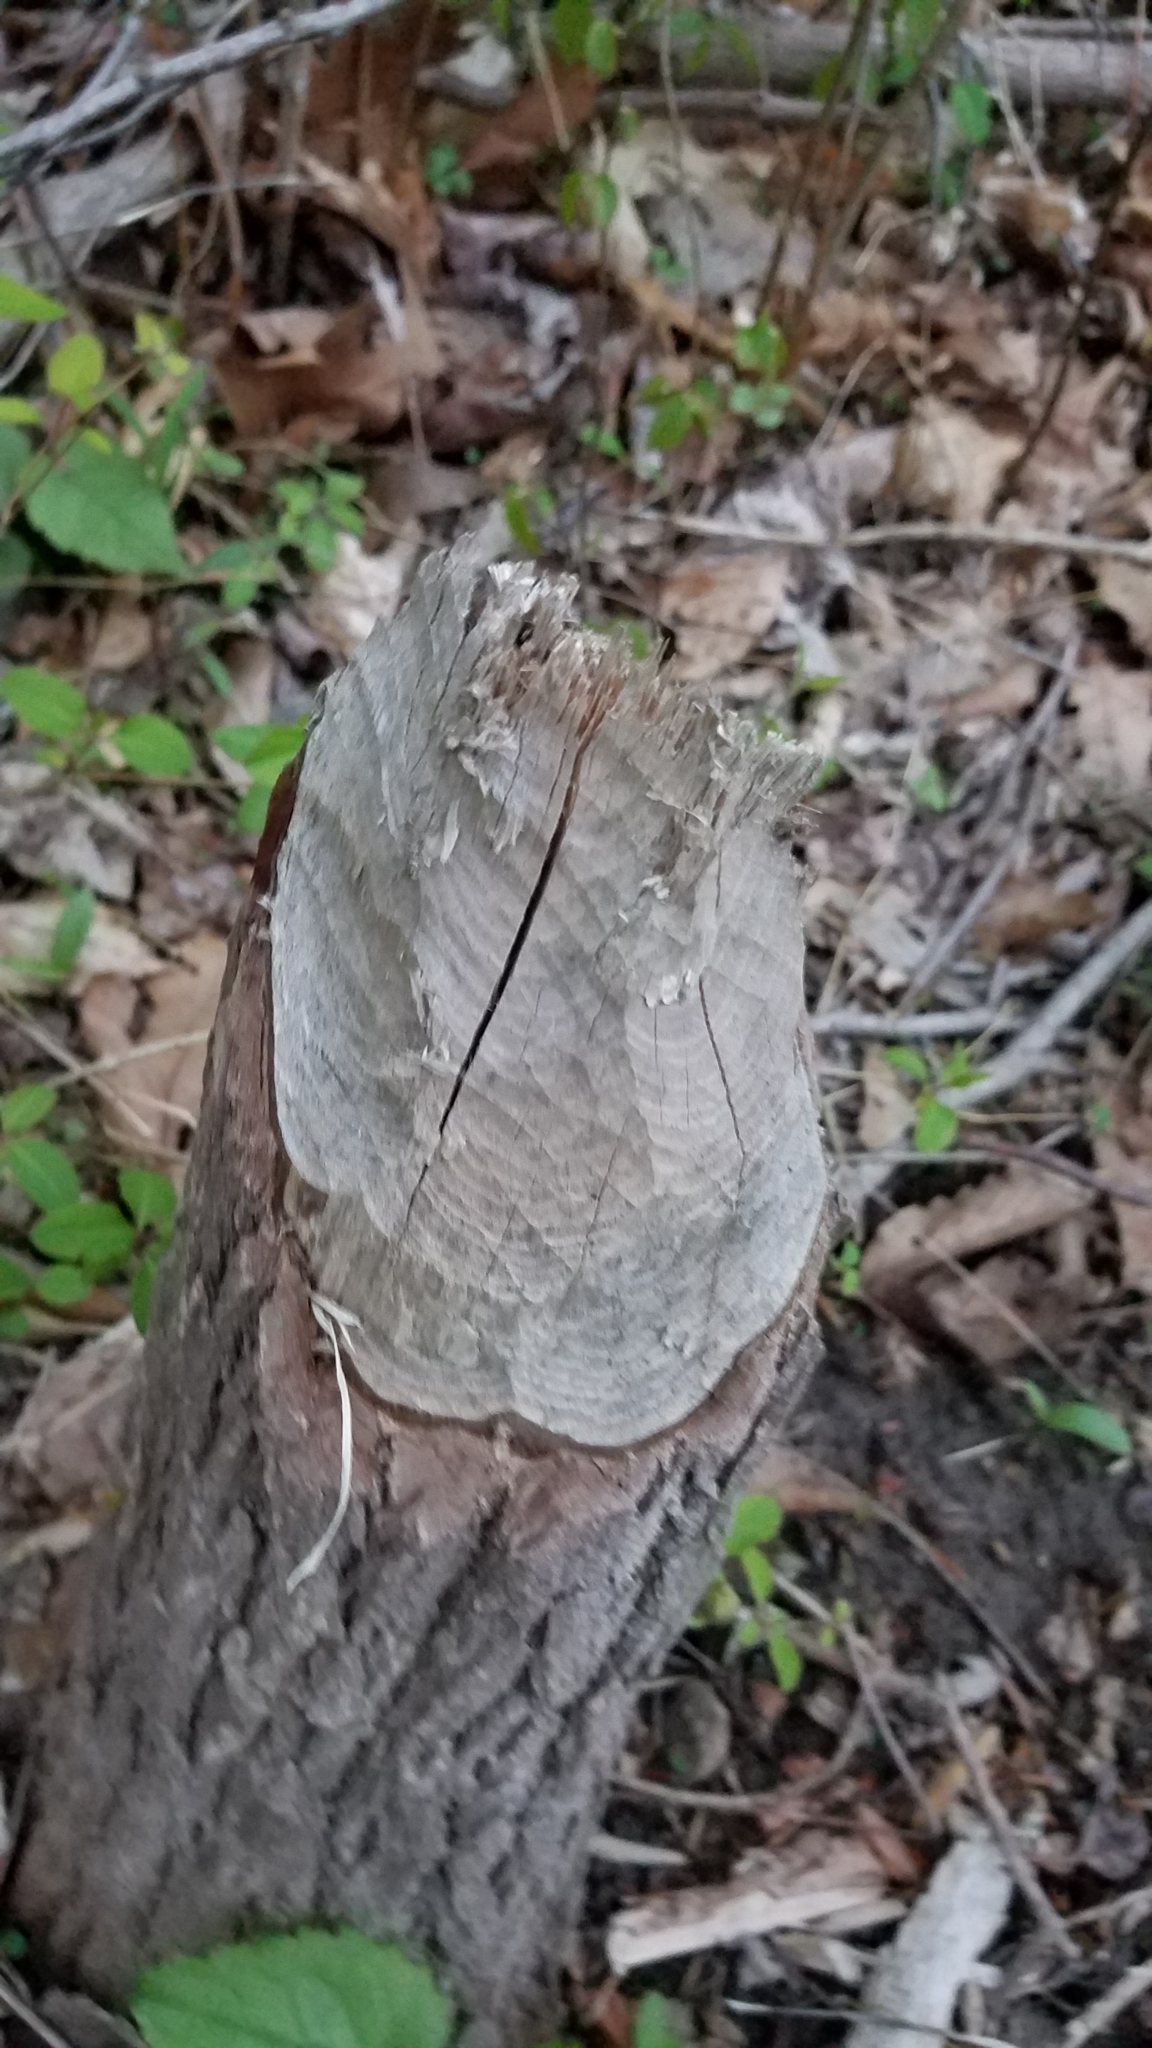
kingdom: Animalia
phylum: Chordata
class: Mammalia
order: Rodentia
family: Castoridae
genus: Castor
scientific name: Castor canadensis
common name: American beaver
